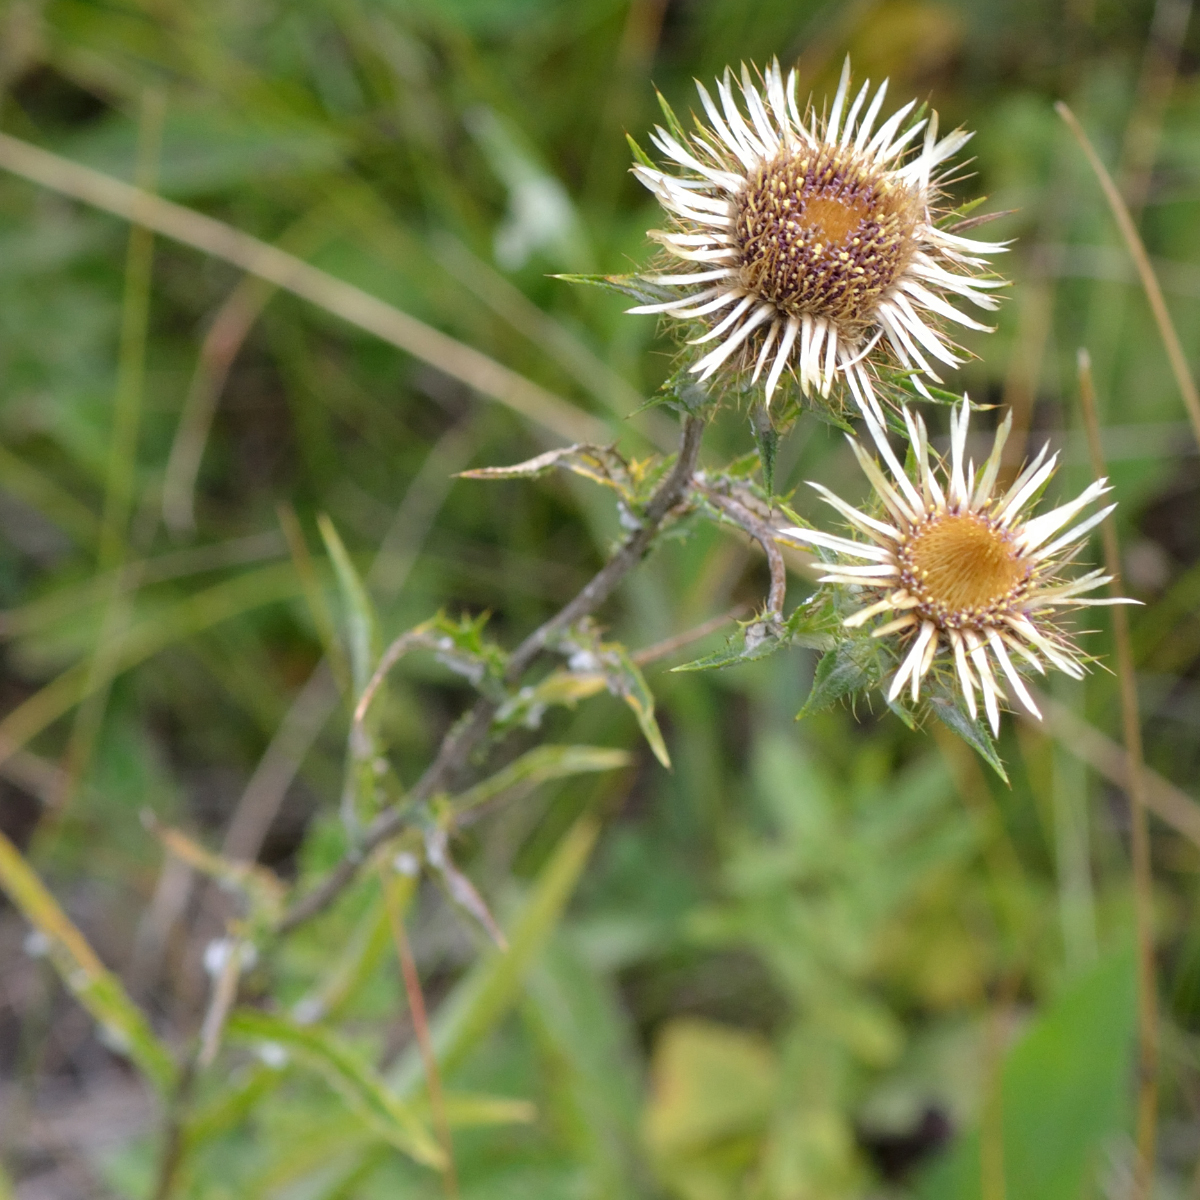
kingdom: Plantae
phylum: Tracheophyta
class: Magnoliopsida
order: Asterales
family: Asteraceae
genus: Carlina
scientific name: Carlina biebersteinii
